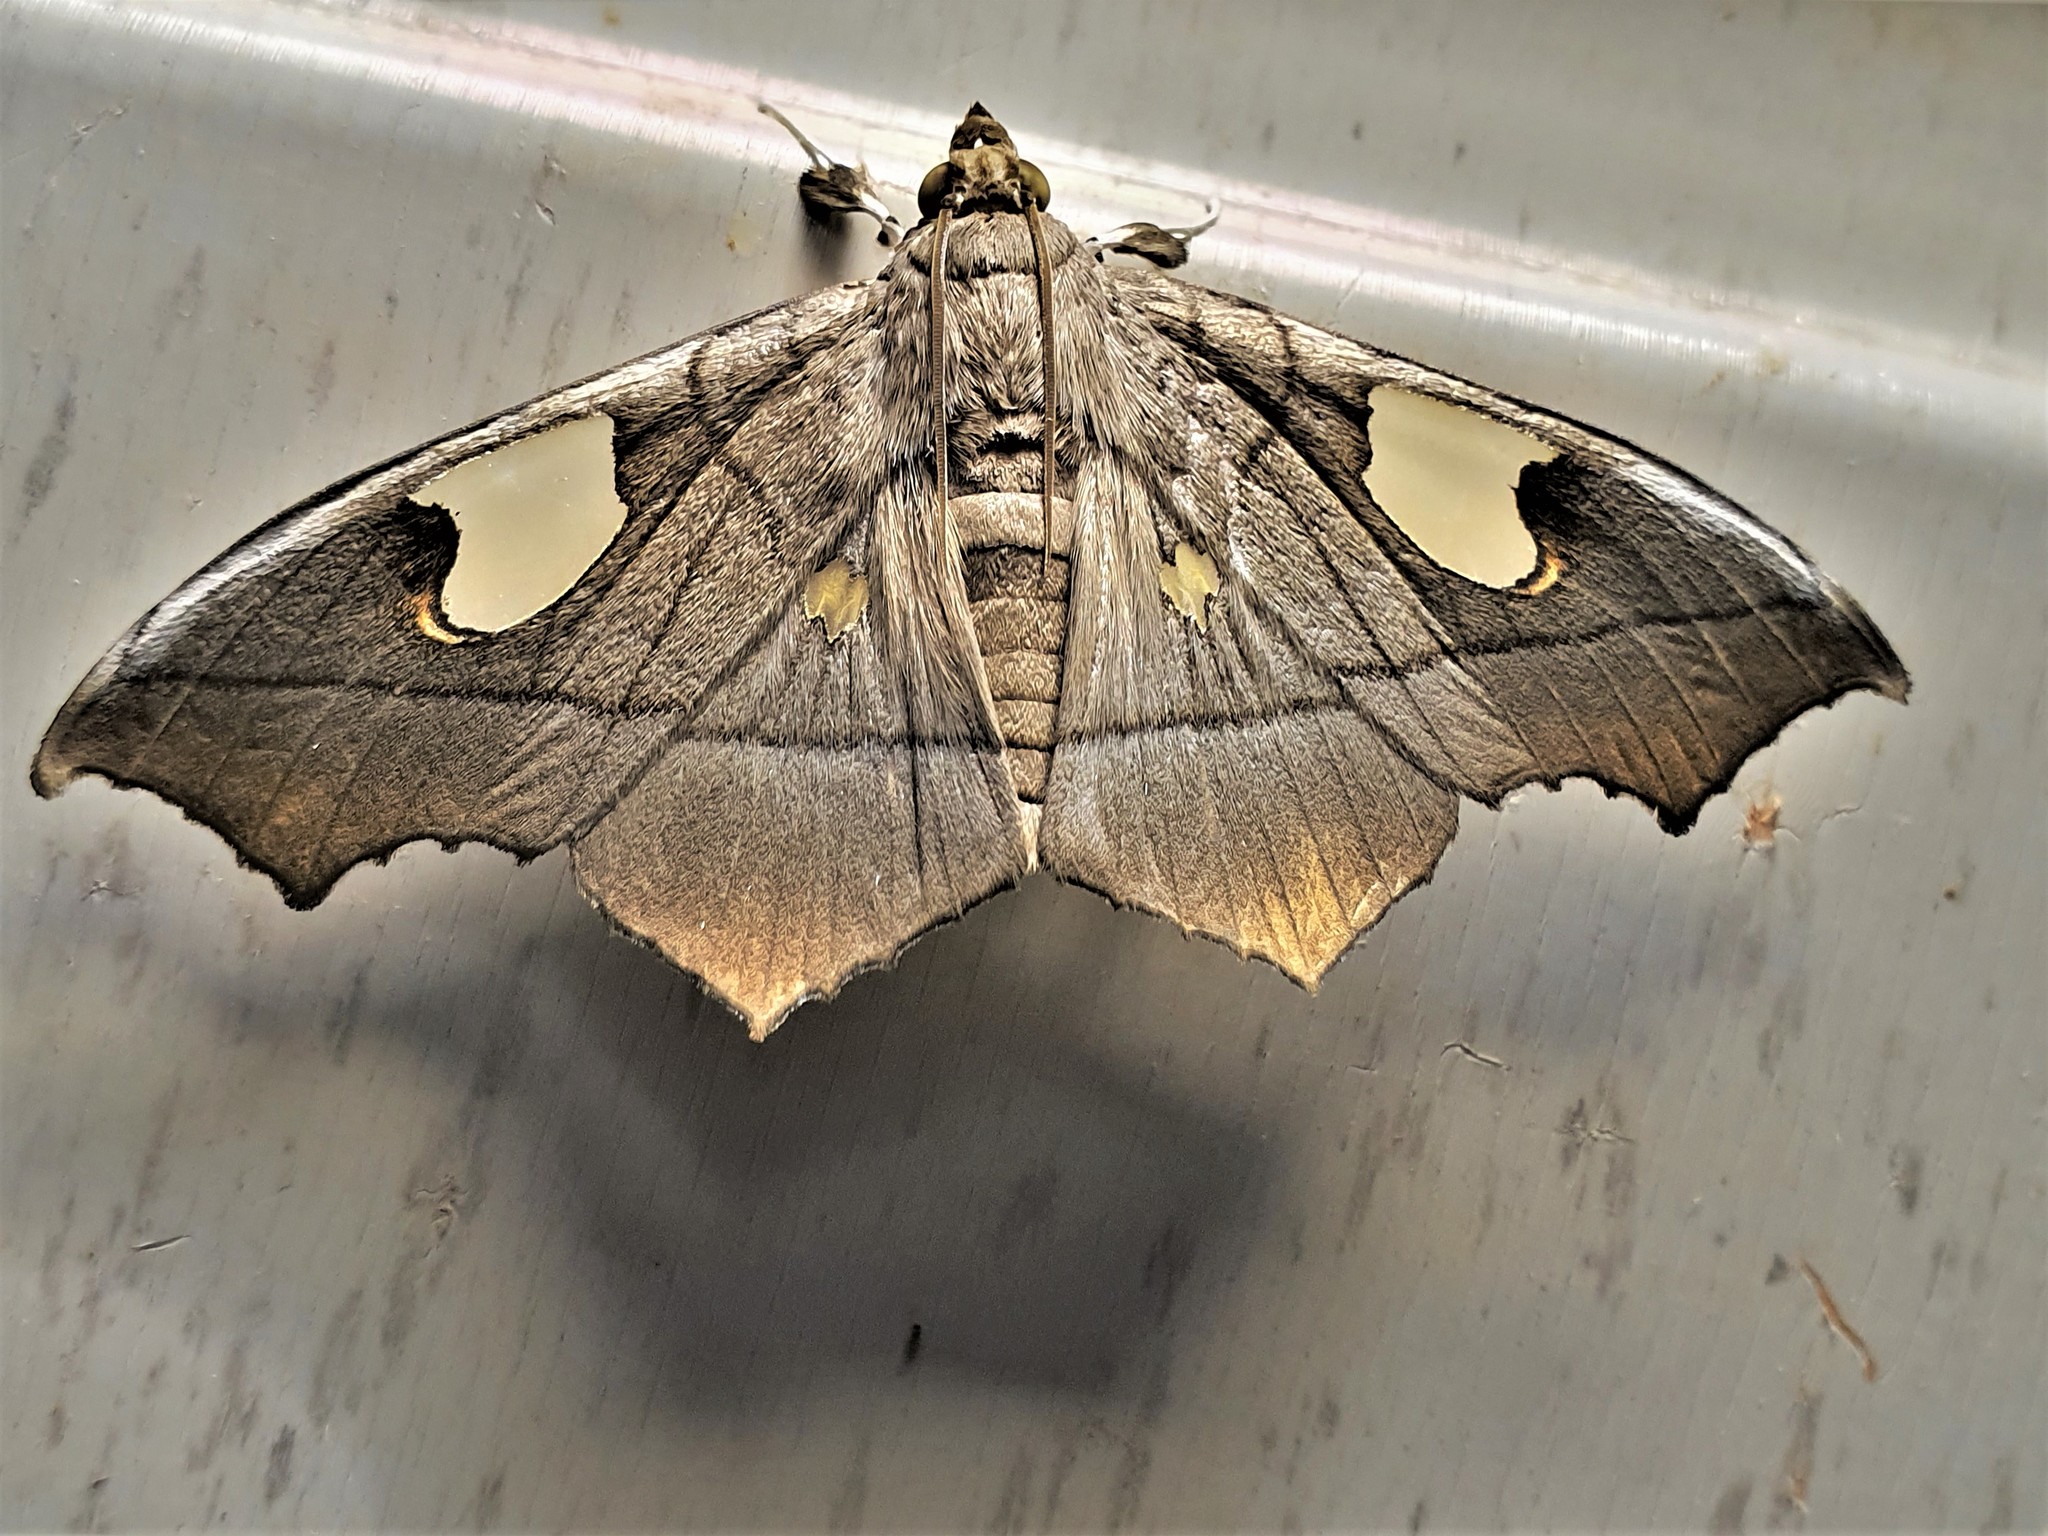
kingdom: Animalia
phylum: Arthropoda
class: Insecta
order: Lepidoptera
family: Crambidae
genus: Midila
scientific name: Midila lamia
